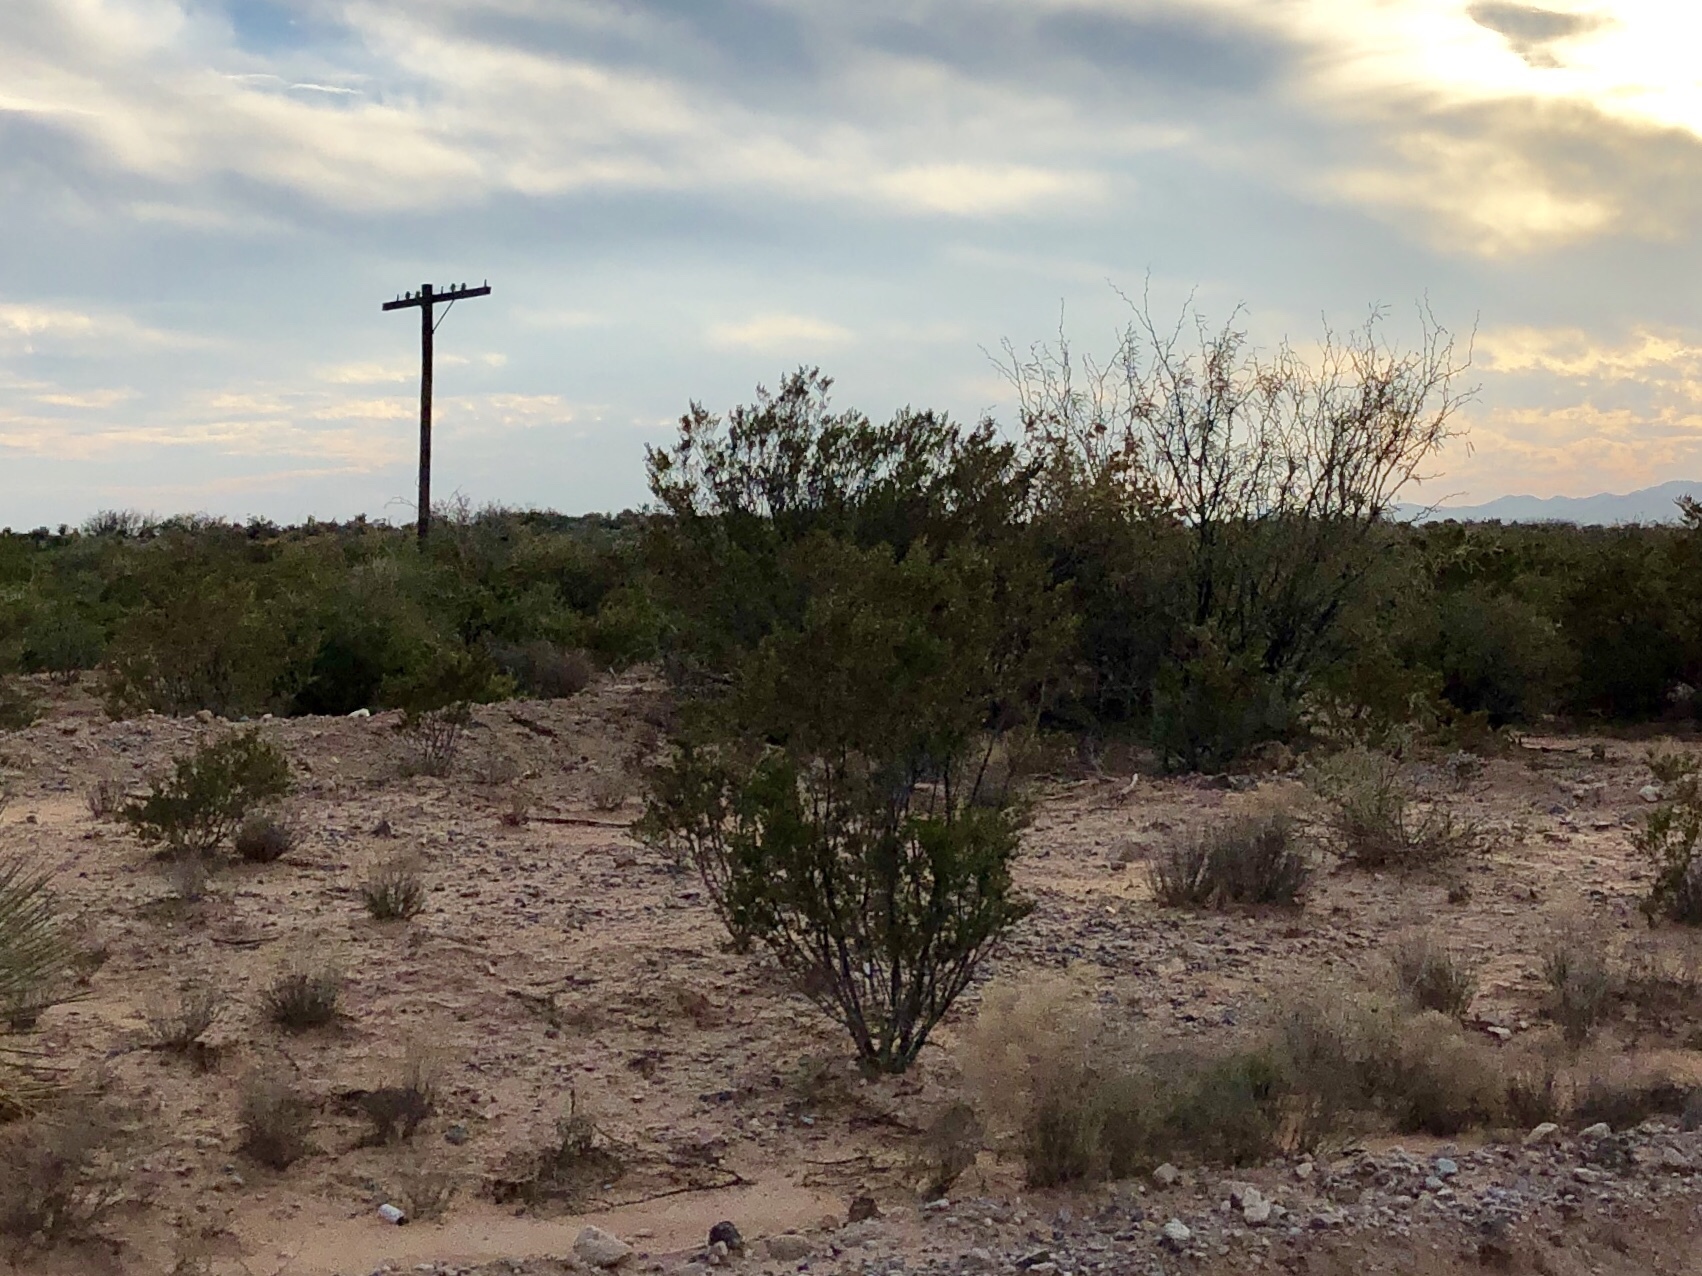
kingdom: Plantae
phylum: Tracheophyta
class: Magnoliopsida
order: Zygophyllales
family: Zygophyllaceae
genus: Larrea
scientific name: Larrea tridentata
